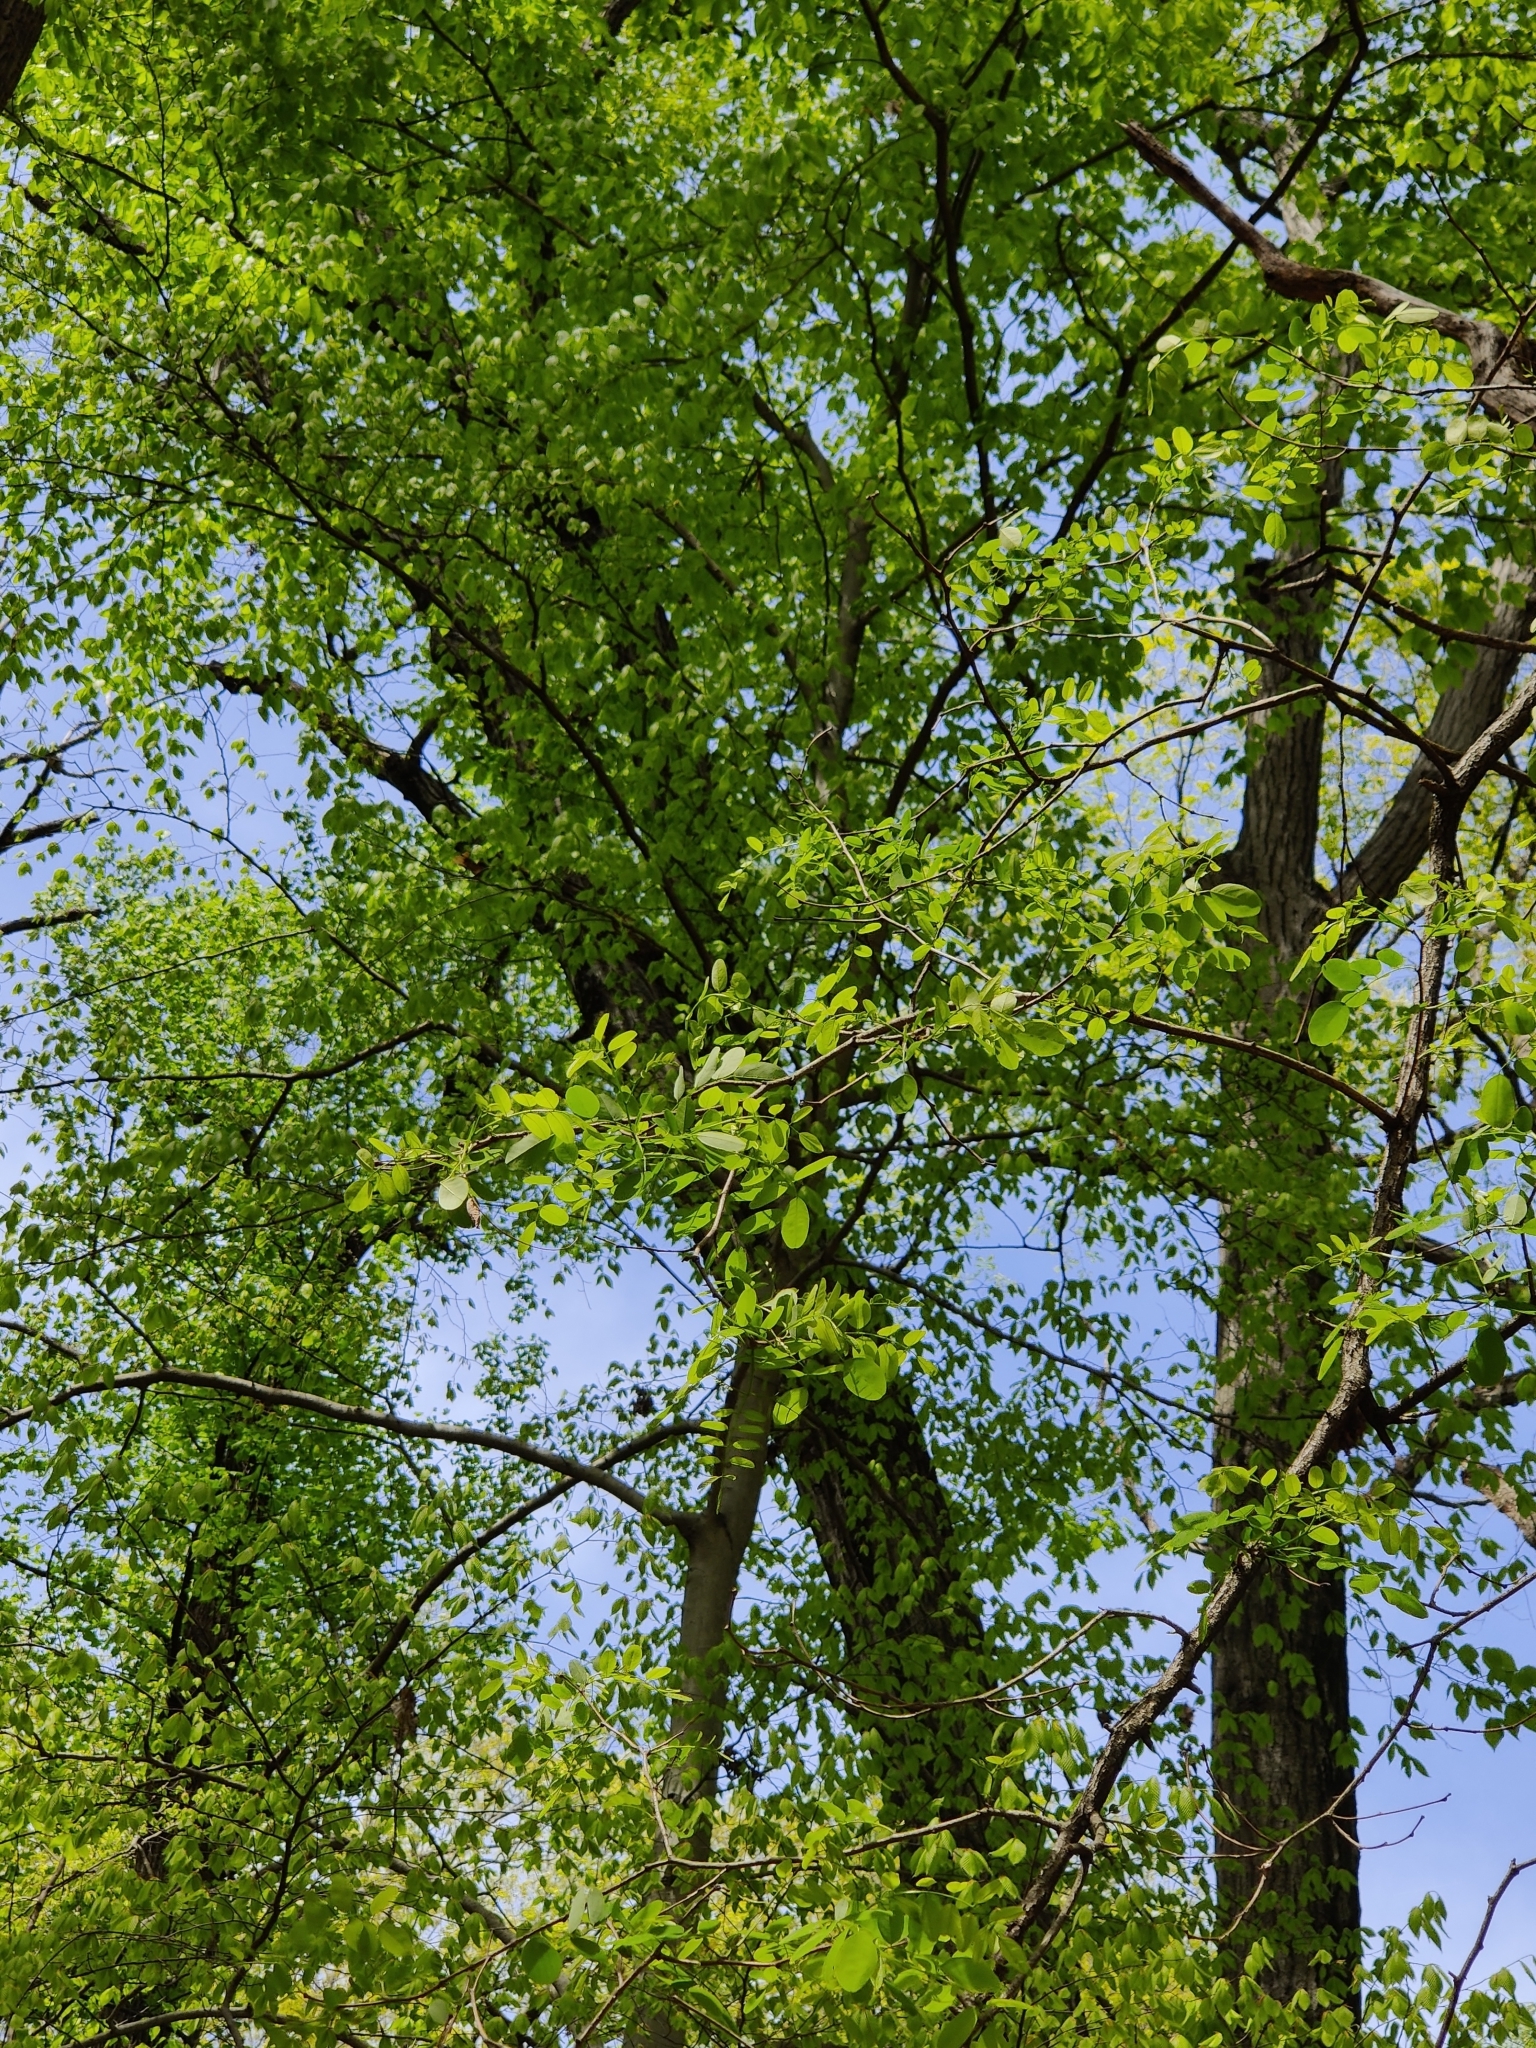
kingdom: Plantae
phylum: Tracheophyta
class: Magnoliopsida
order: Fabales
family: Fabaceae
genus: Robinia
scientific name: Robinia pseudoacacia
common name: Black locust
